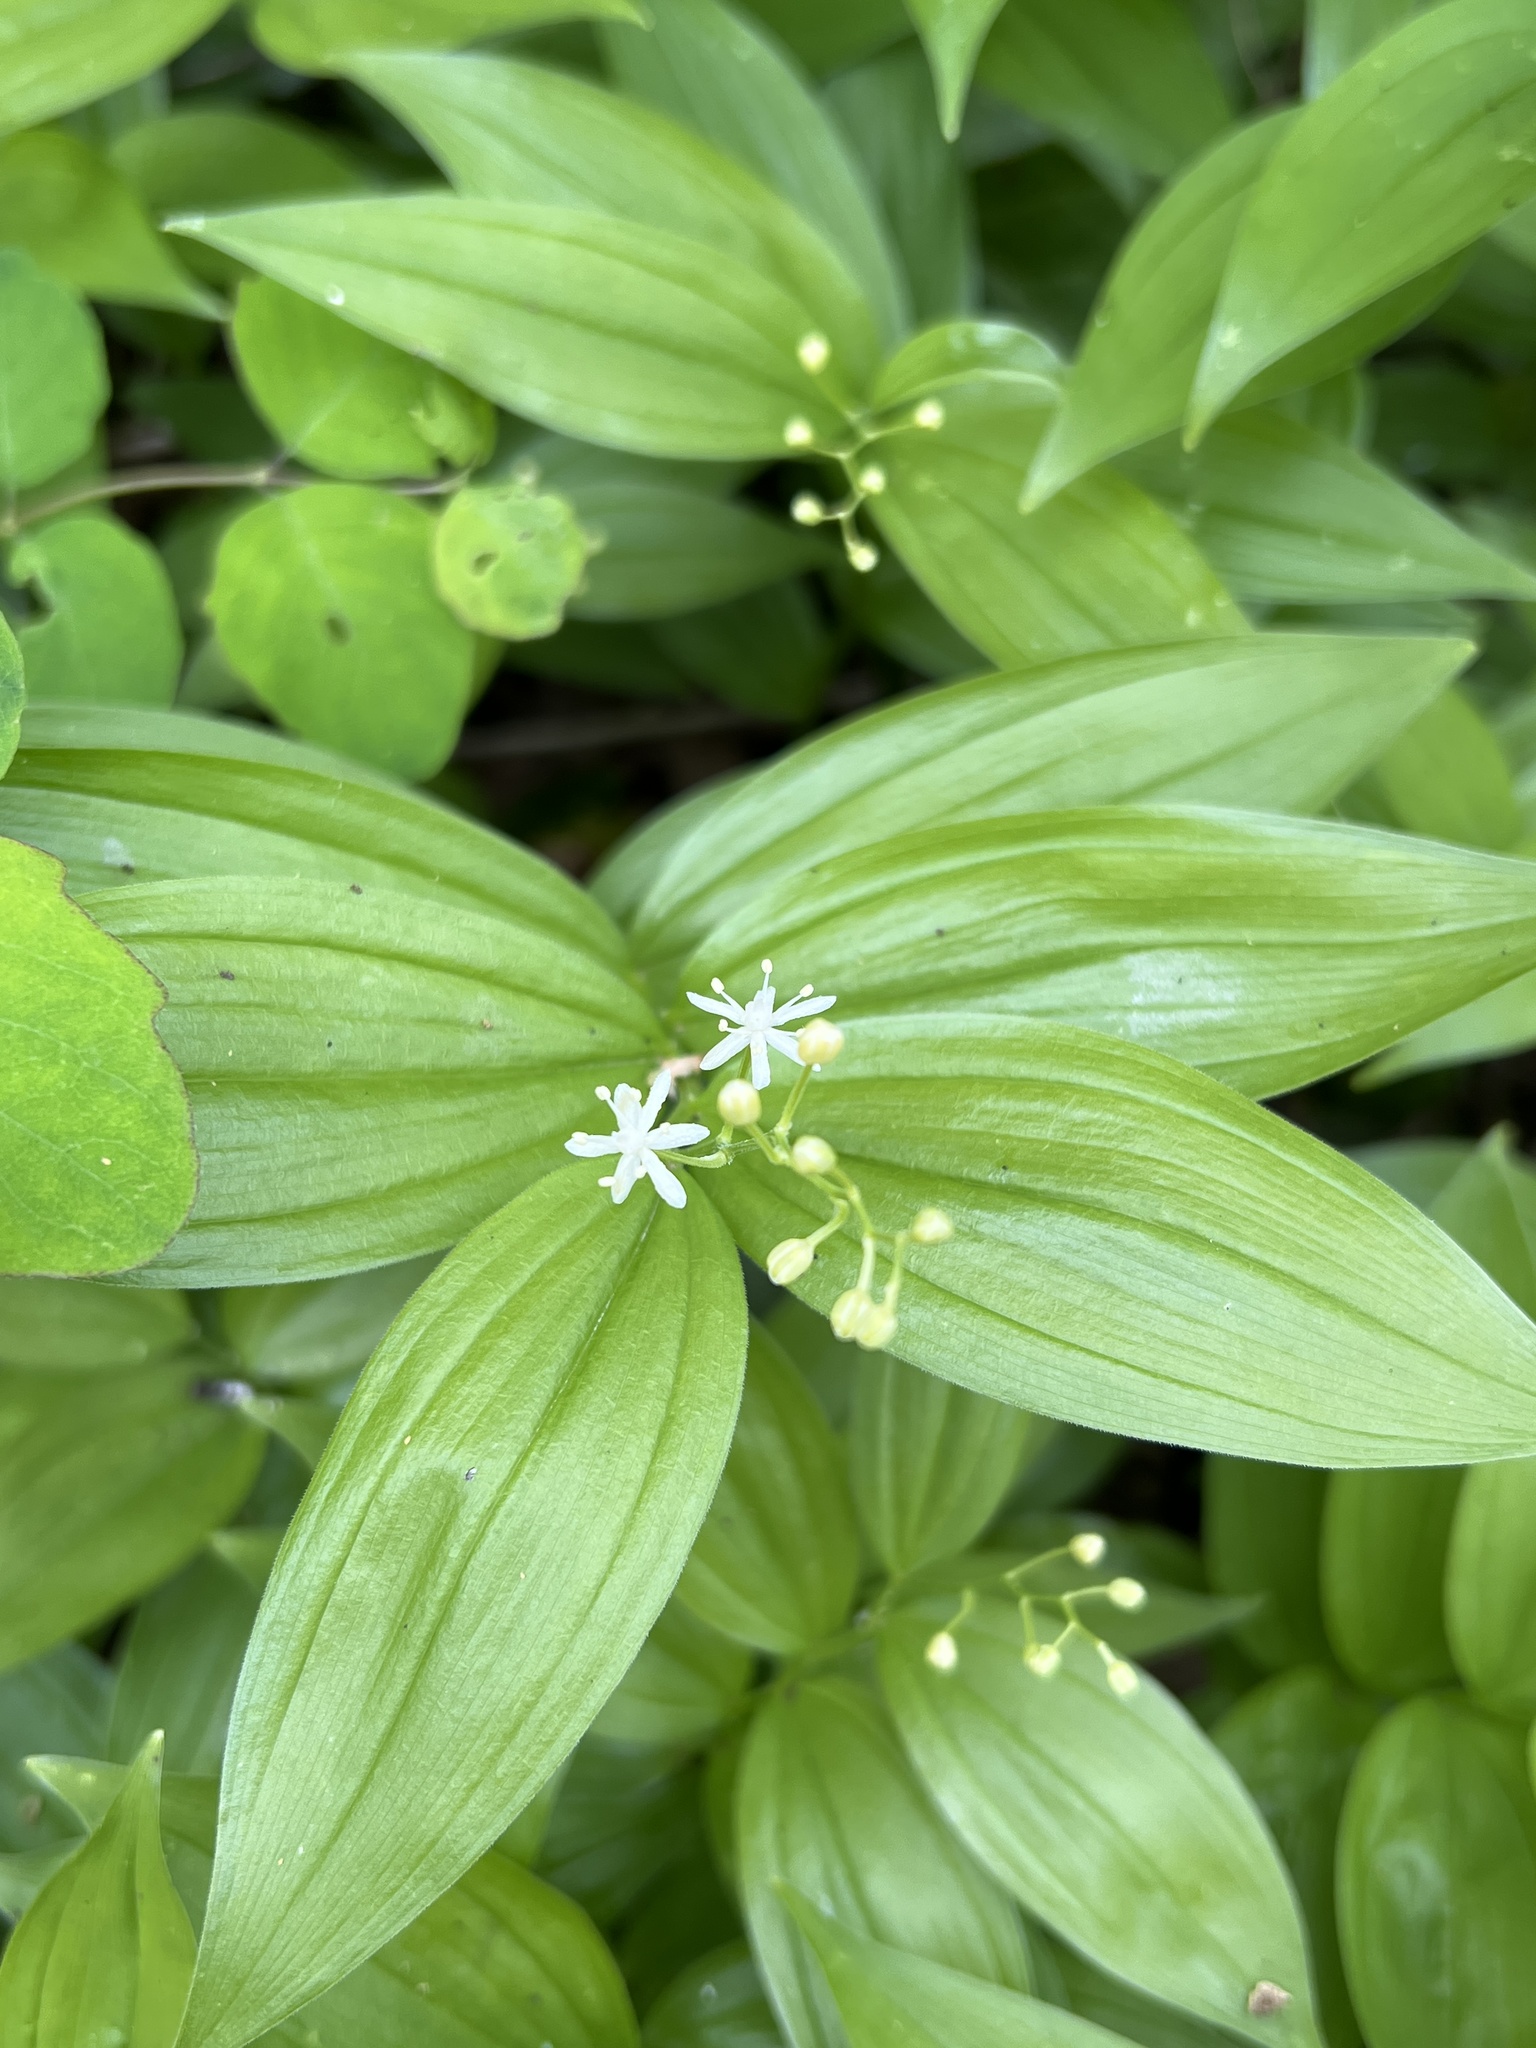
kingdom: Plantae
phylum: Tracheophyta
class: Liliopsida
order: Asparagales
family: Asparagaceae
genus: Maianthemum
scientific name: Maianthemum stellatum
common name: Little false solomon's seal
